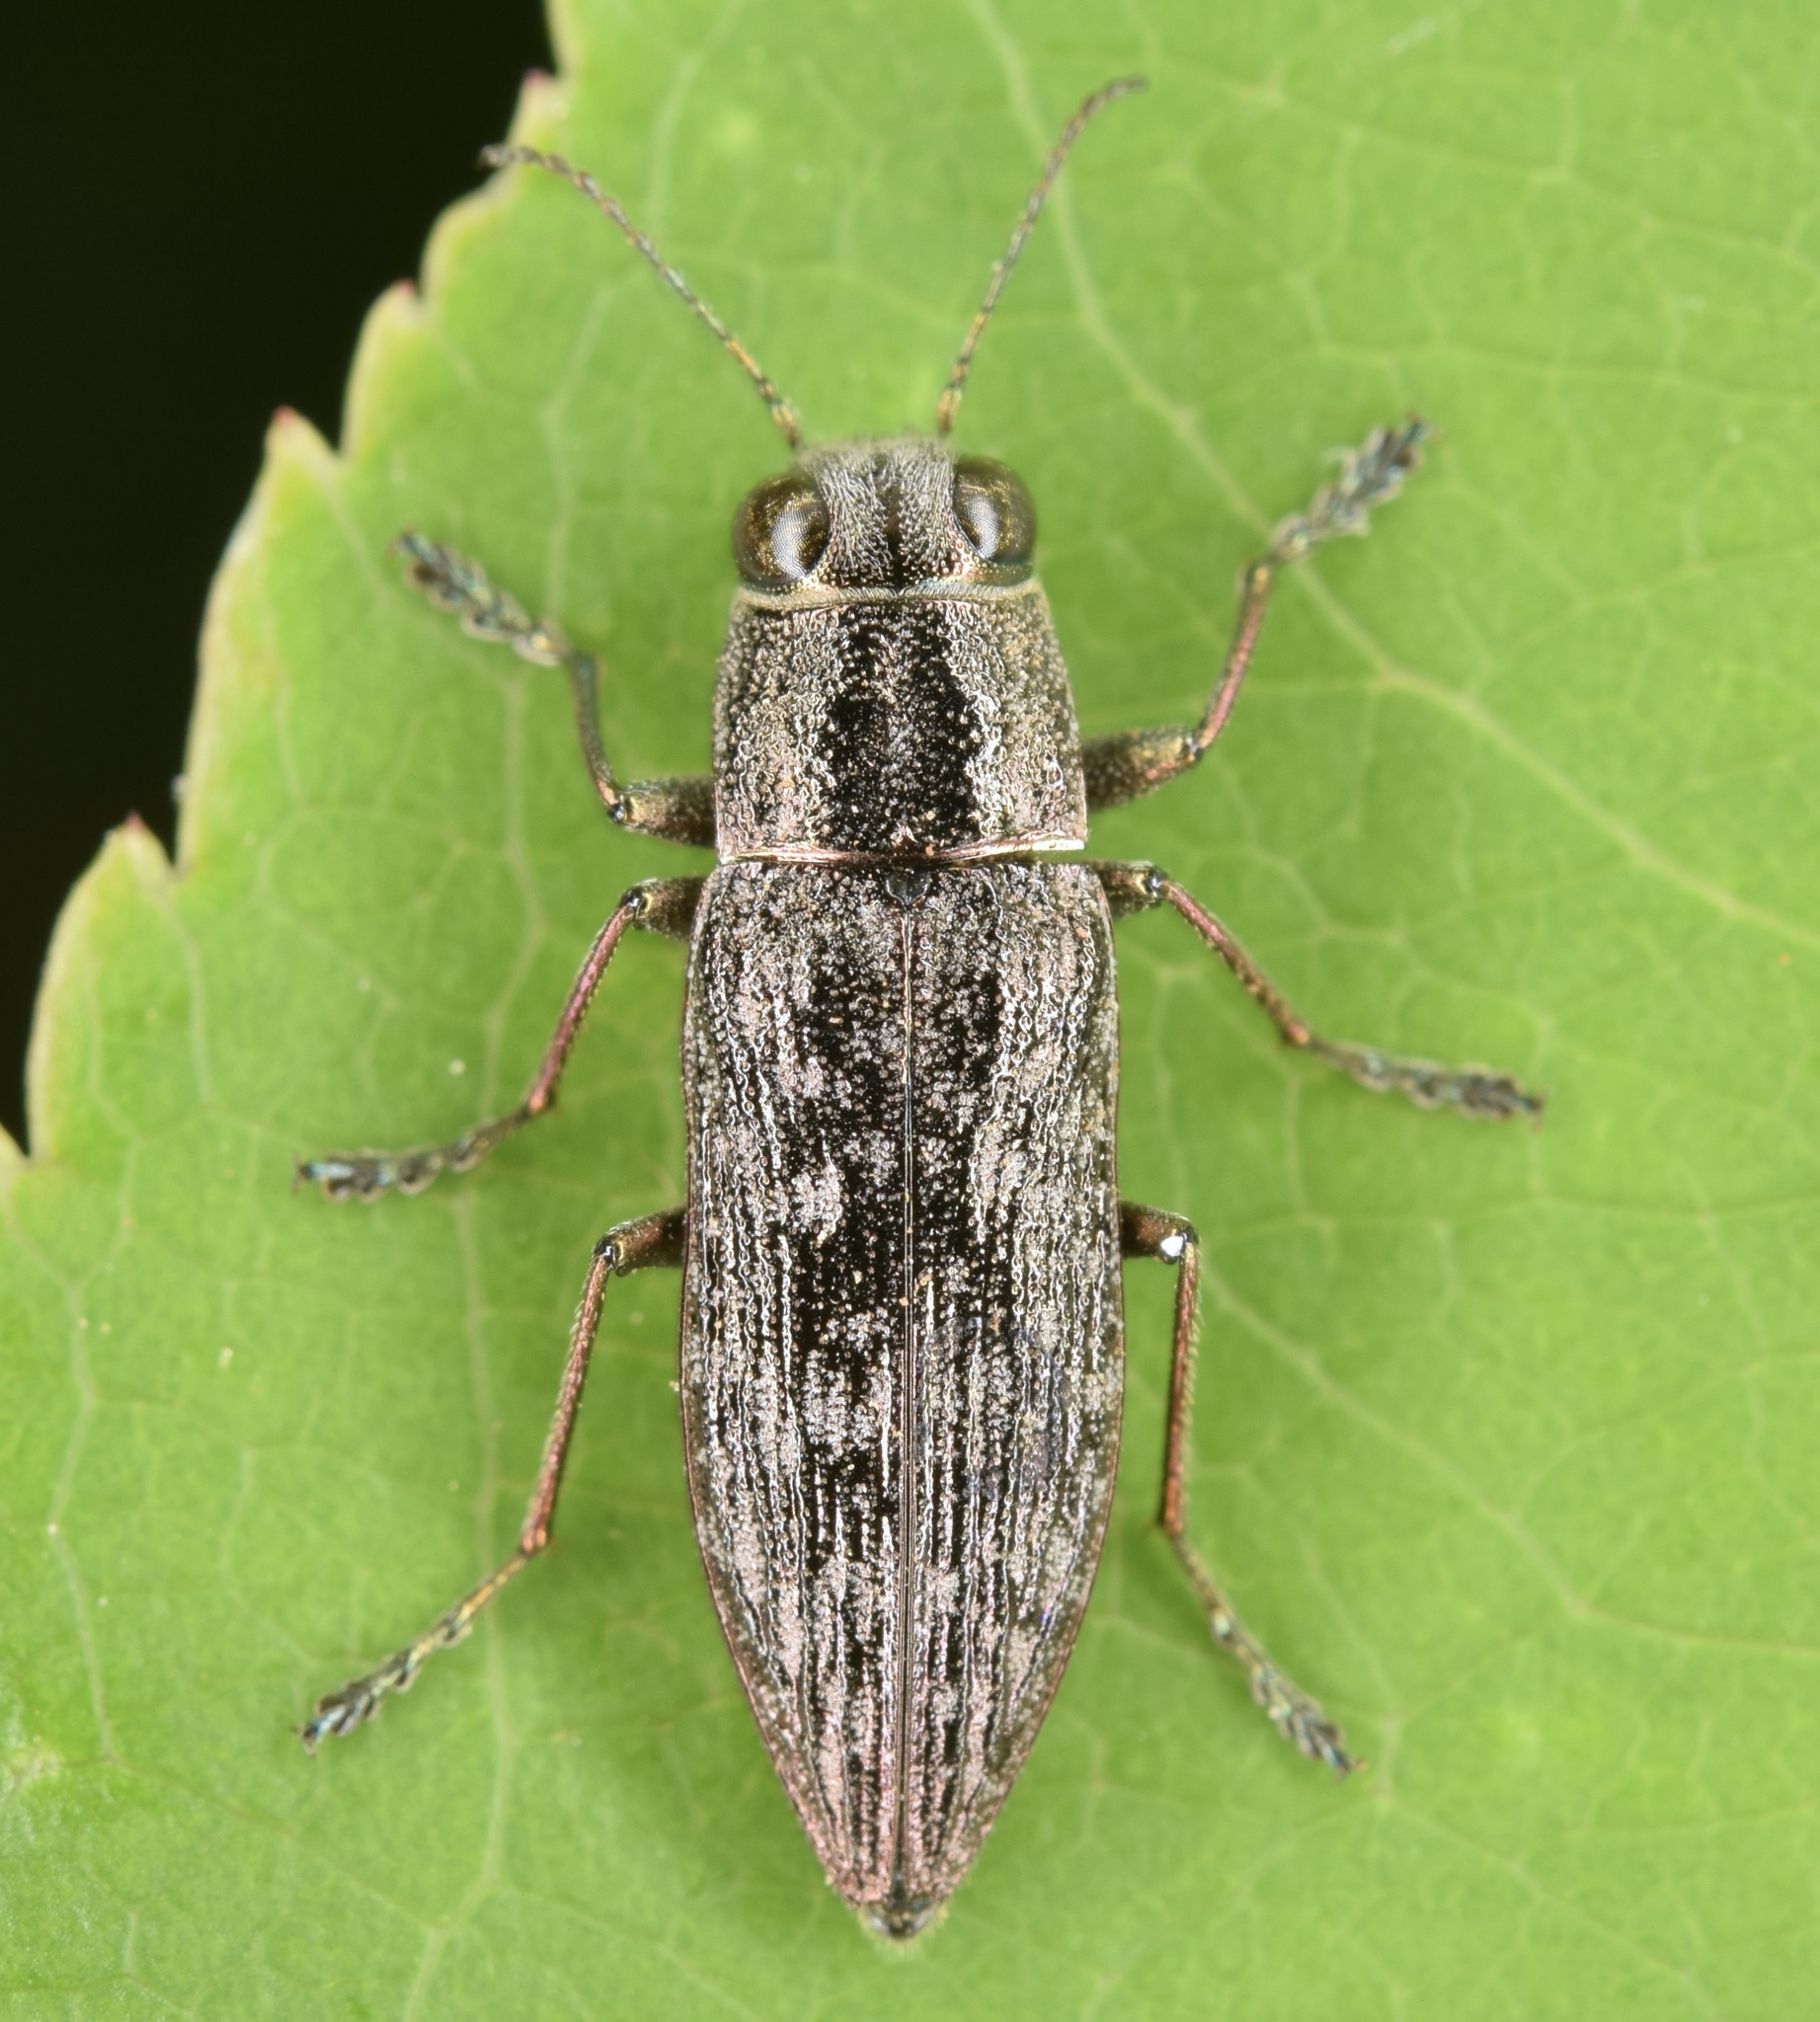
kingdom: Animalia
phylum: Arthropoda
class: Insecta
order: Coleoptera
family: Buprestidae
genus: Spectralia
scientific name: Spectralia gracilipes
